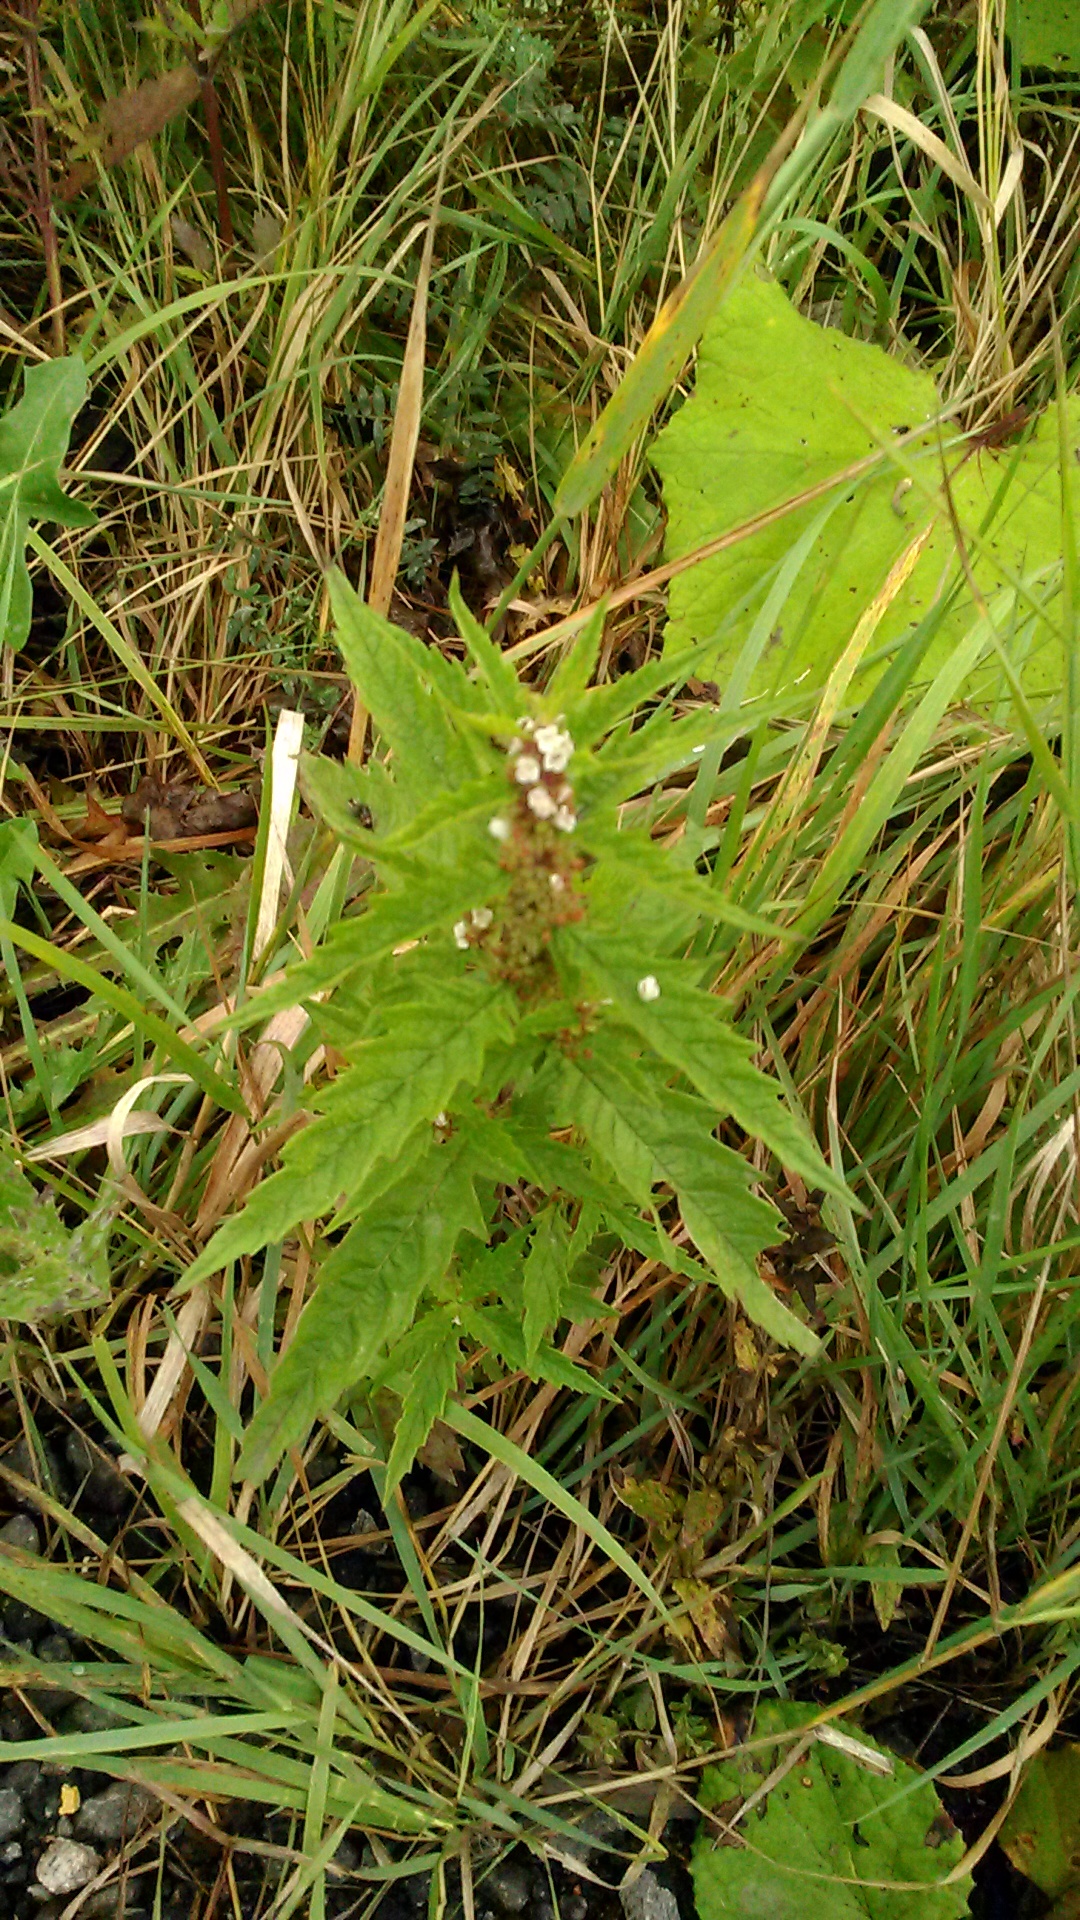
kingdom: Plantae
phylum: Tracheophyta
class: Magnoliopsida
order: Lamiales
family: Lamiaceae
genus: Lycopus
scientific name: Lycopus europaeus
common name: European bugleweed
